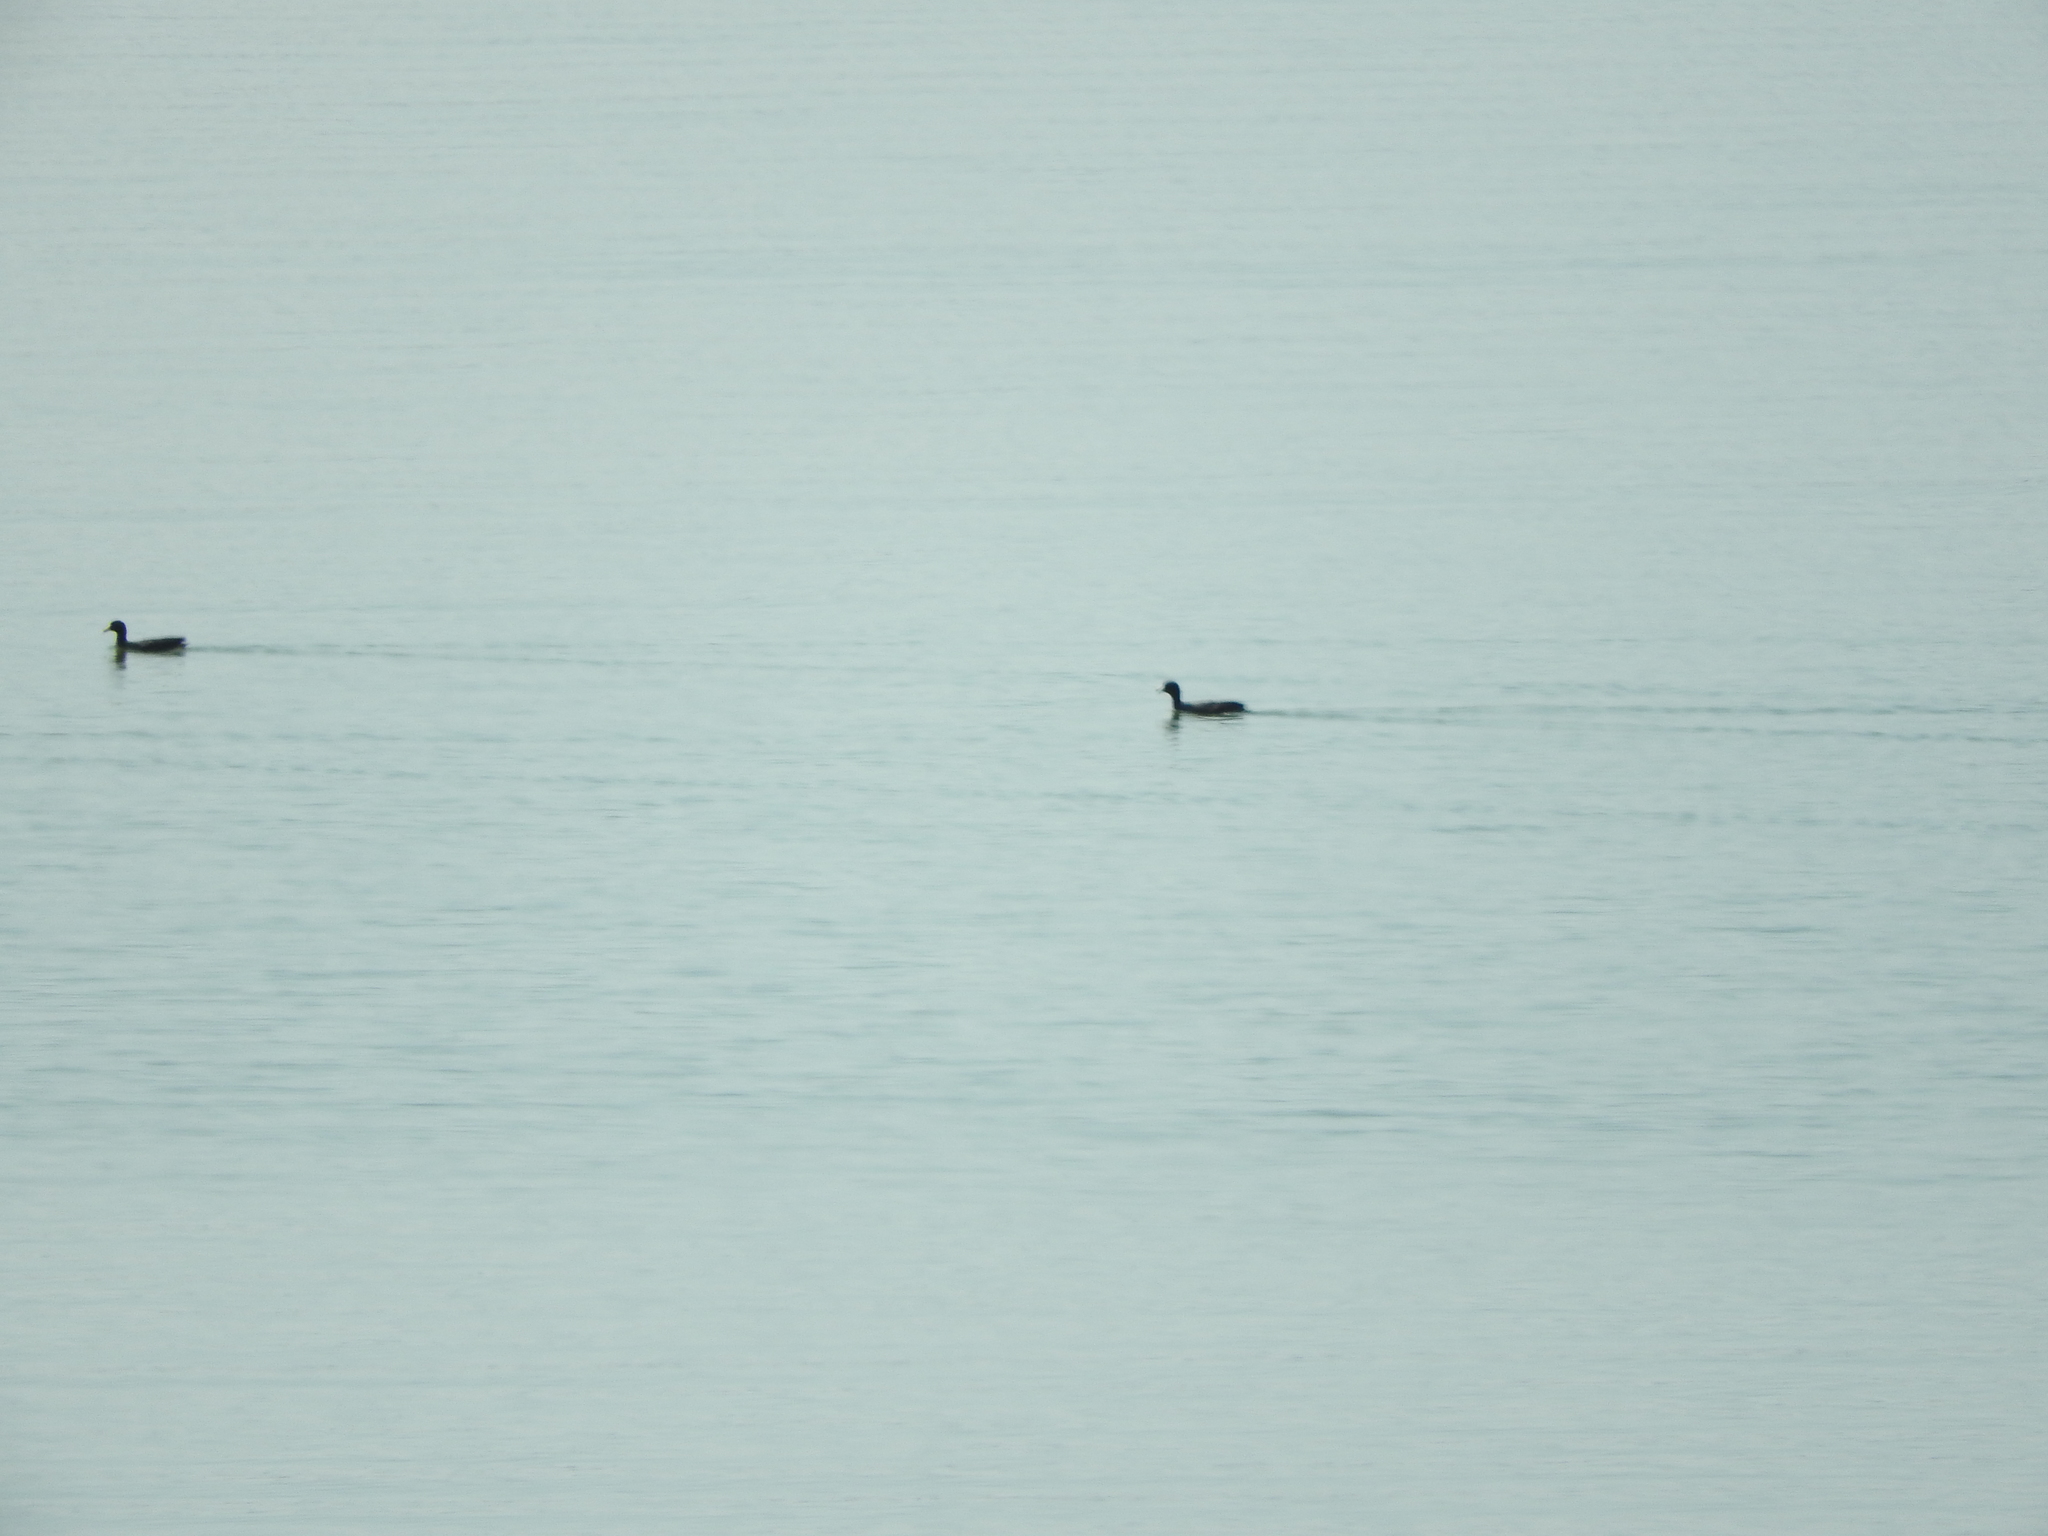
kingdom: Animalia
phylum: Chordata
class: Aves
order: Gruiformes
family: Rallidae
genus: Fulica
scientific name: Fulica americana
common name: American coot
